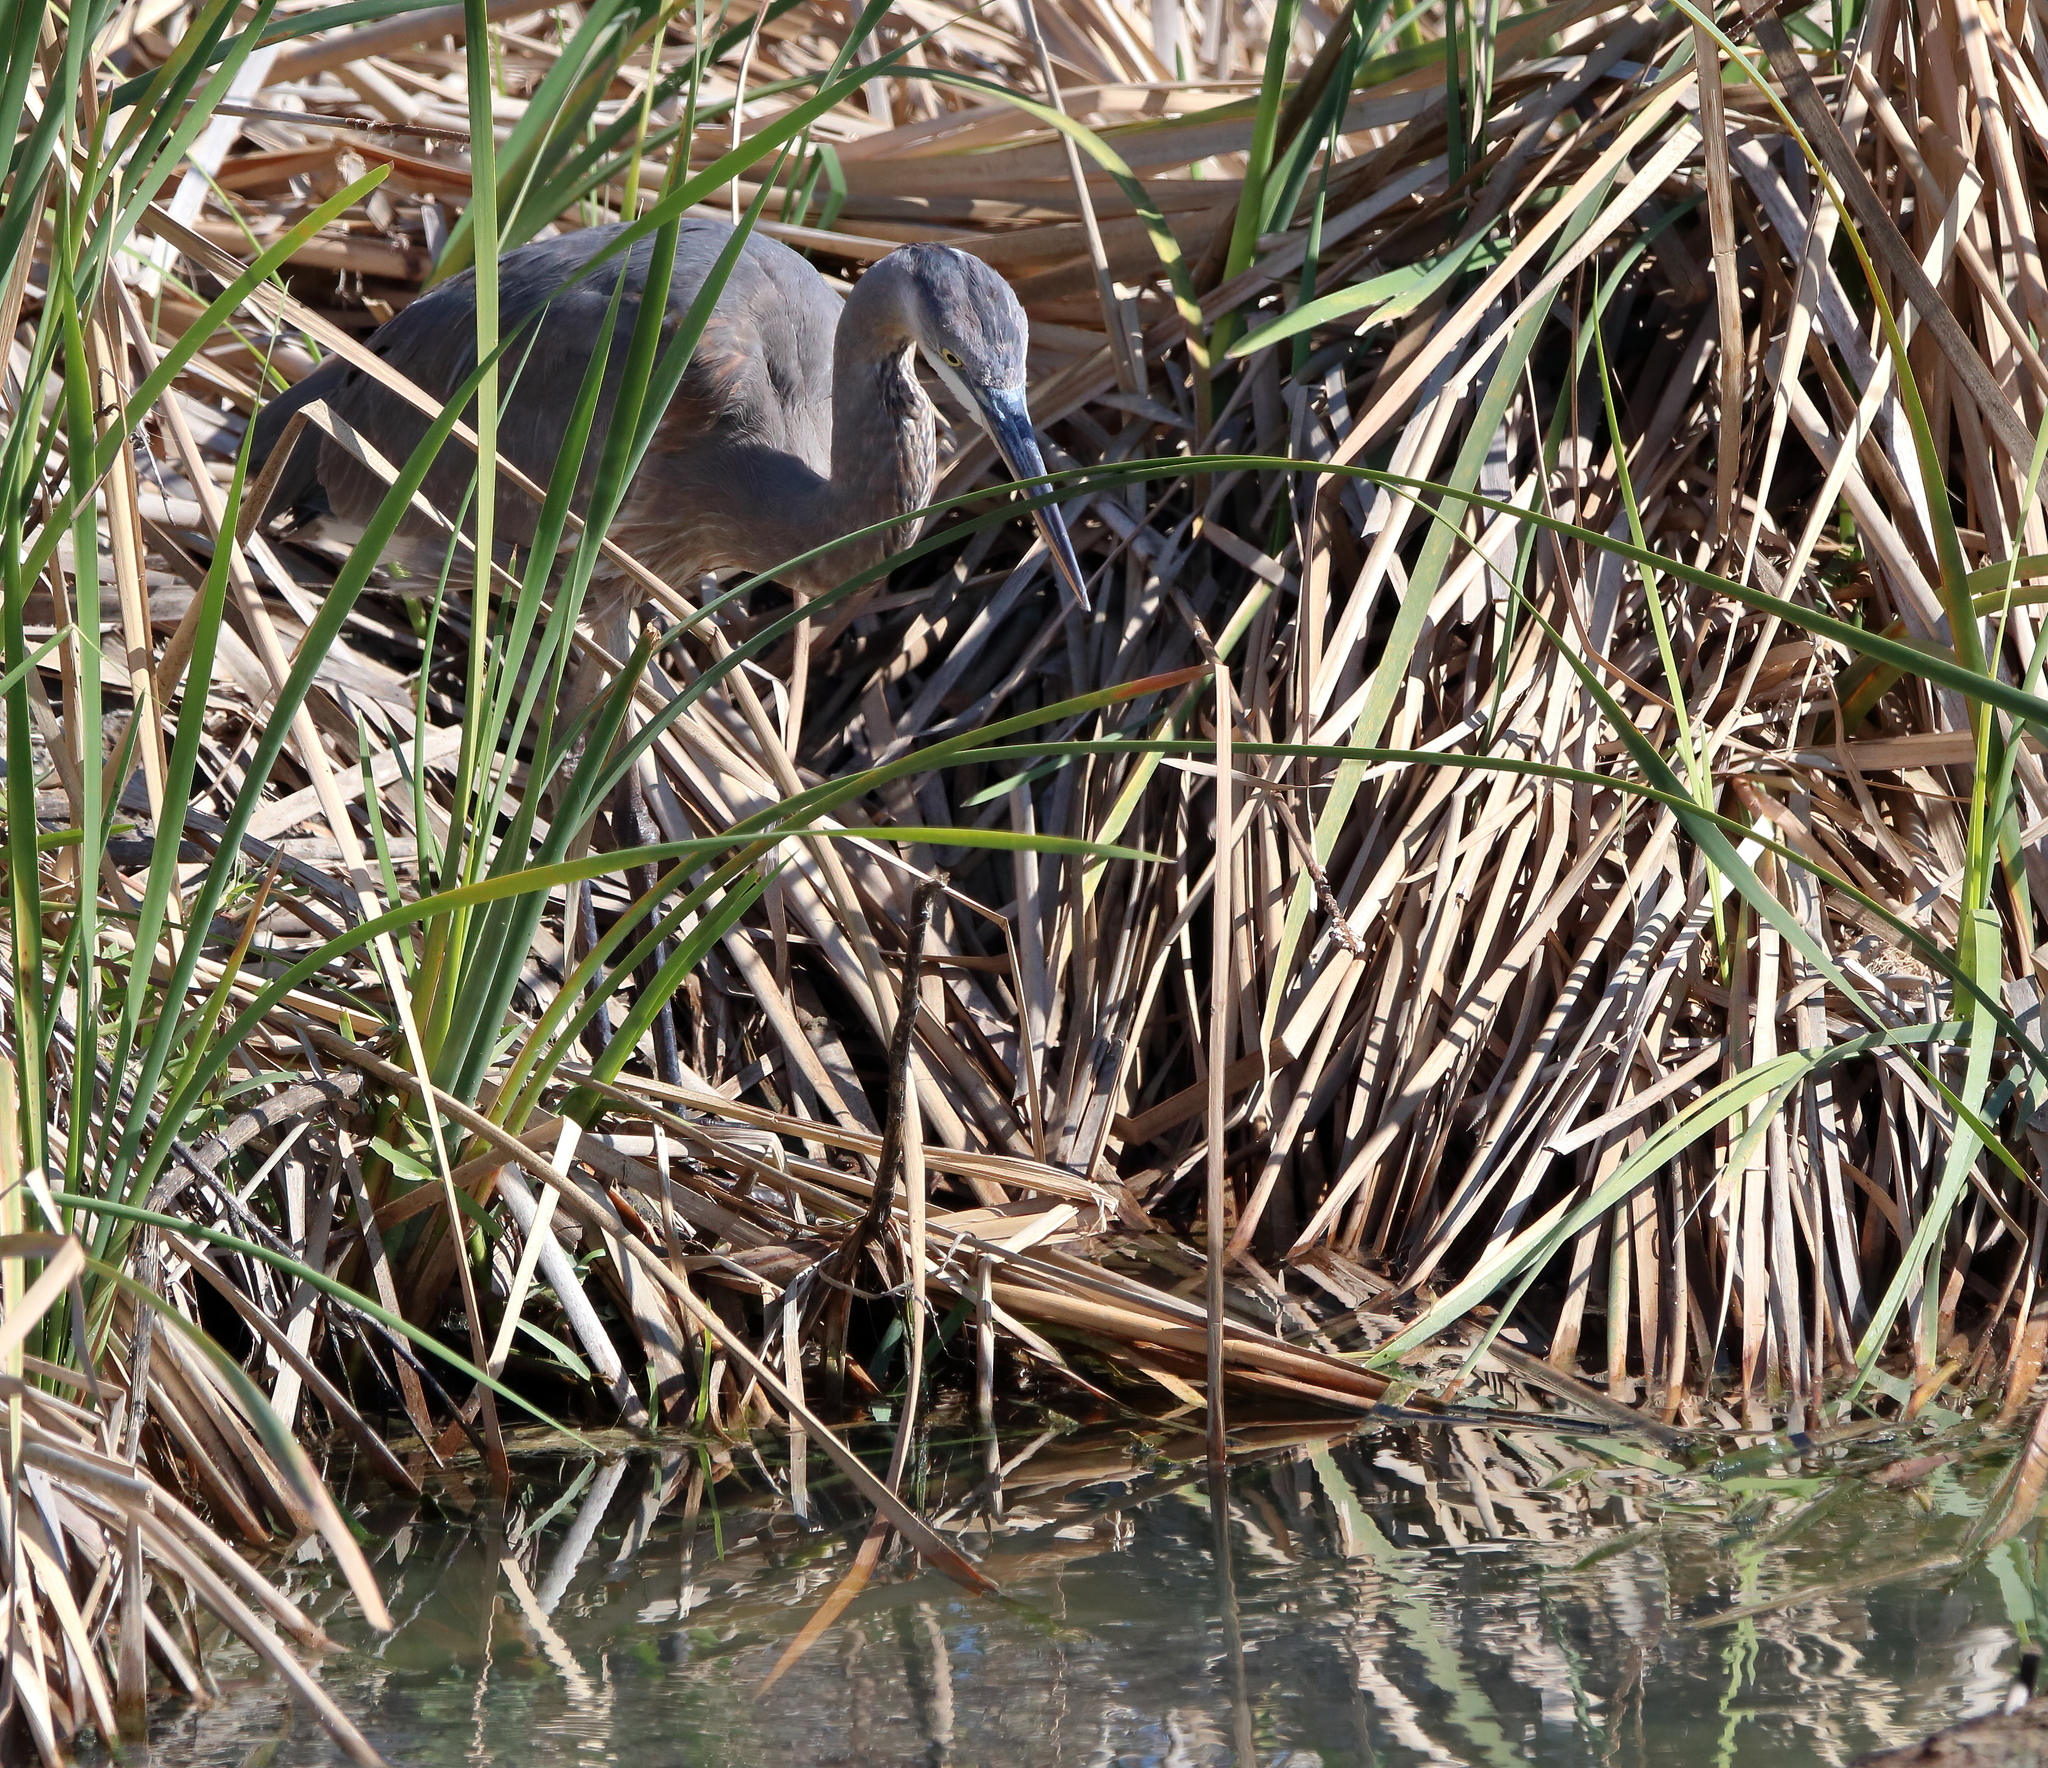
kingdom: Animalia
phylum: Chordata
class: Aves
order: Pelecaniformes
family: Ardeidae
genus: Ardea
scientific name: Ardea herodias
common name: Great blue heron
